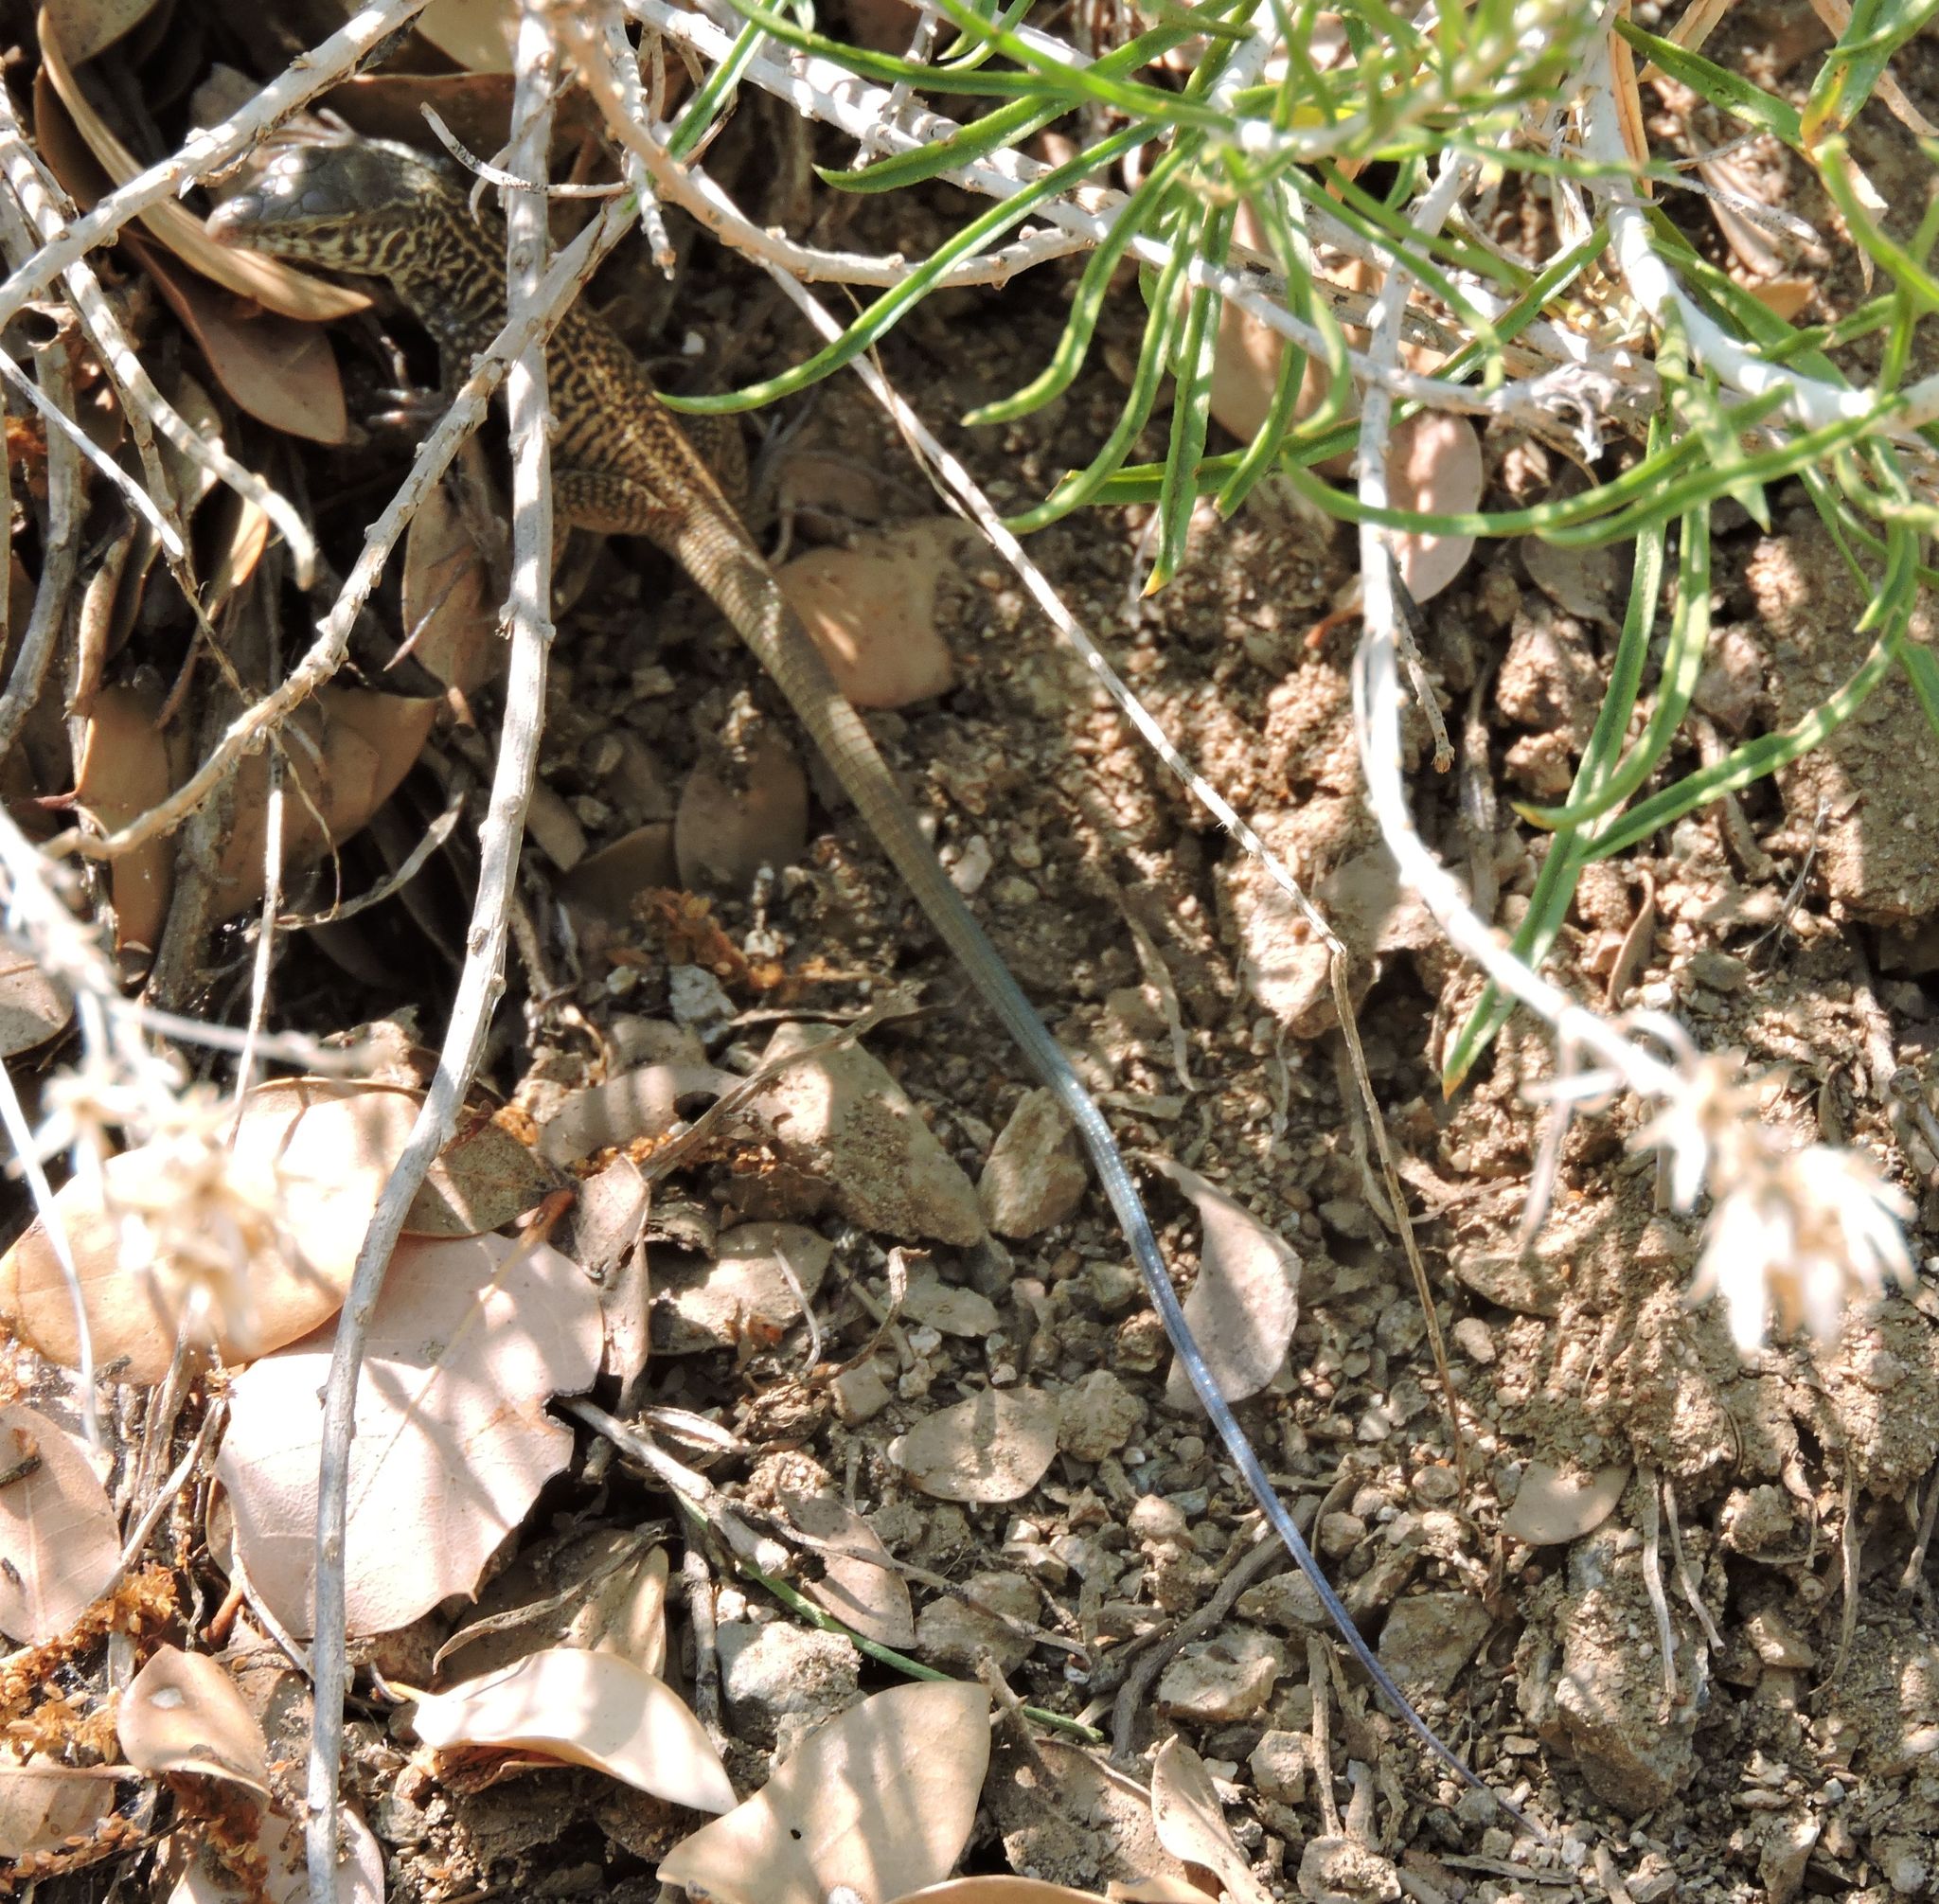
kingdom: Animalia
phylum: Chordata
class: Squamata
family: Teiidae
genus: Aspidoscelis
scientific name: Aspidoscelis tigris
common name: Tiger whiptail
